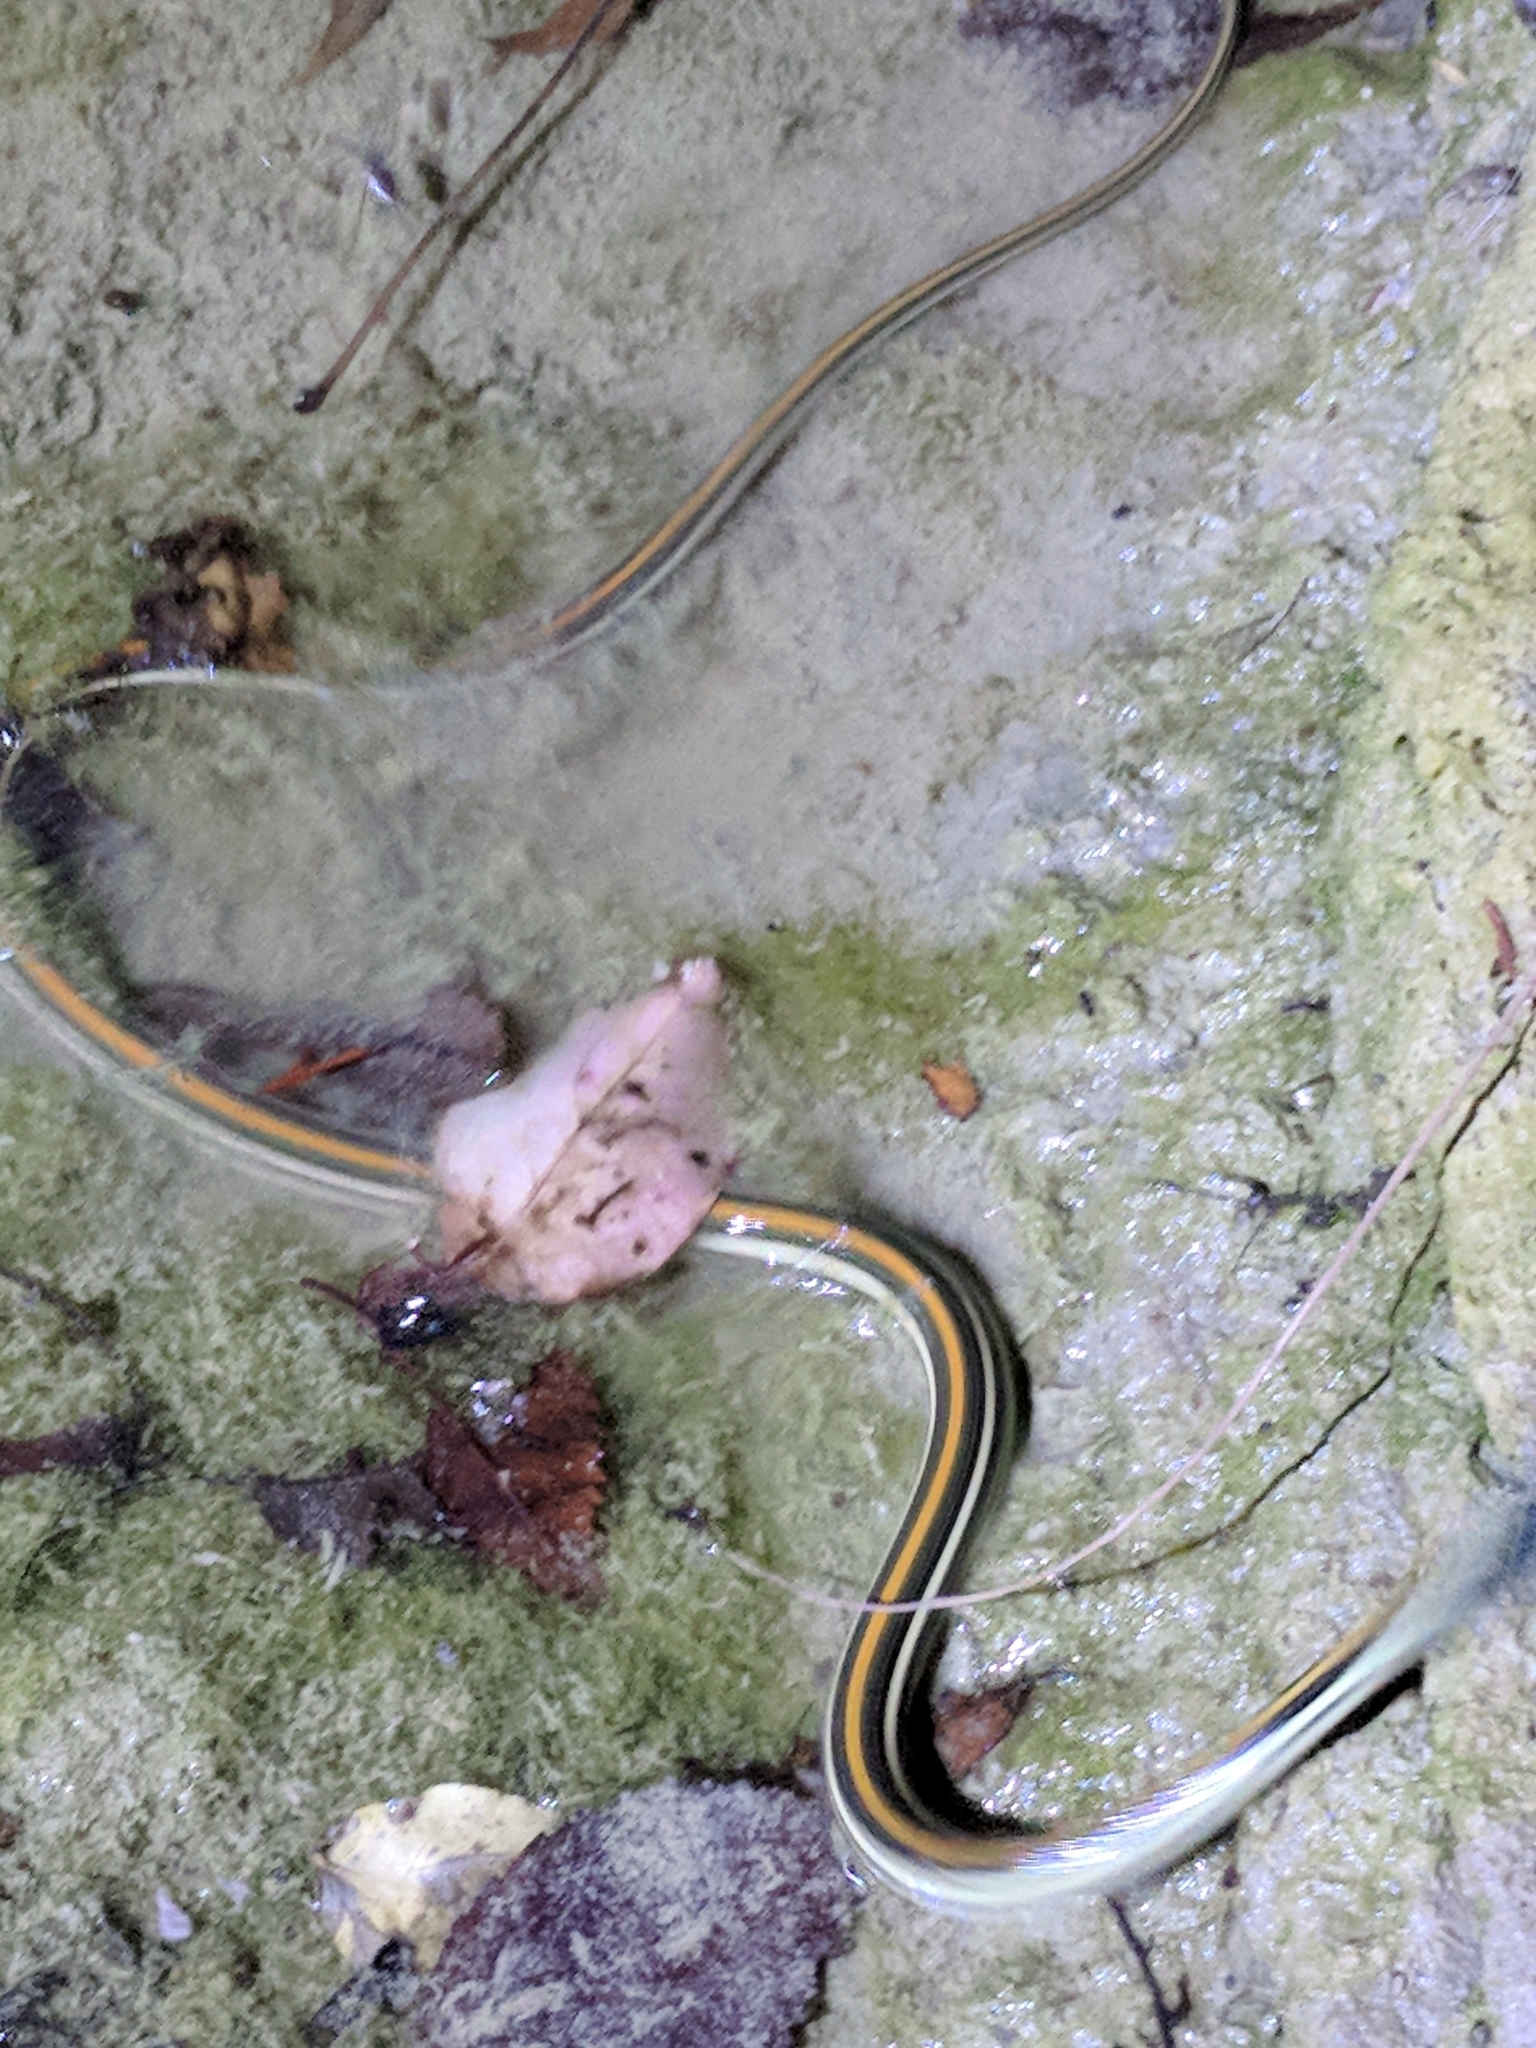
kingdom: Animalia
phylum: Chordata
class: Squamata
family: Colubridae
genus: Thamnophis
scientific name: Thamnophis proximus
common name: Western ribbon snake
